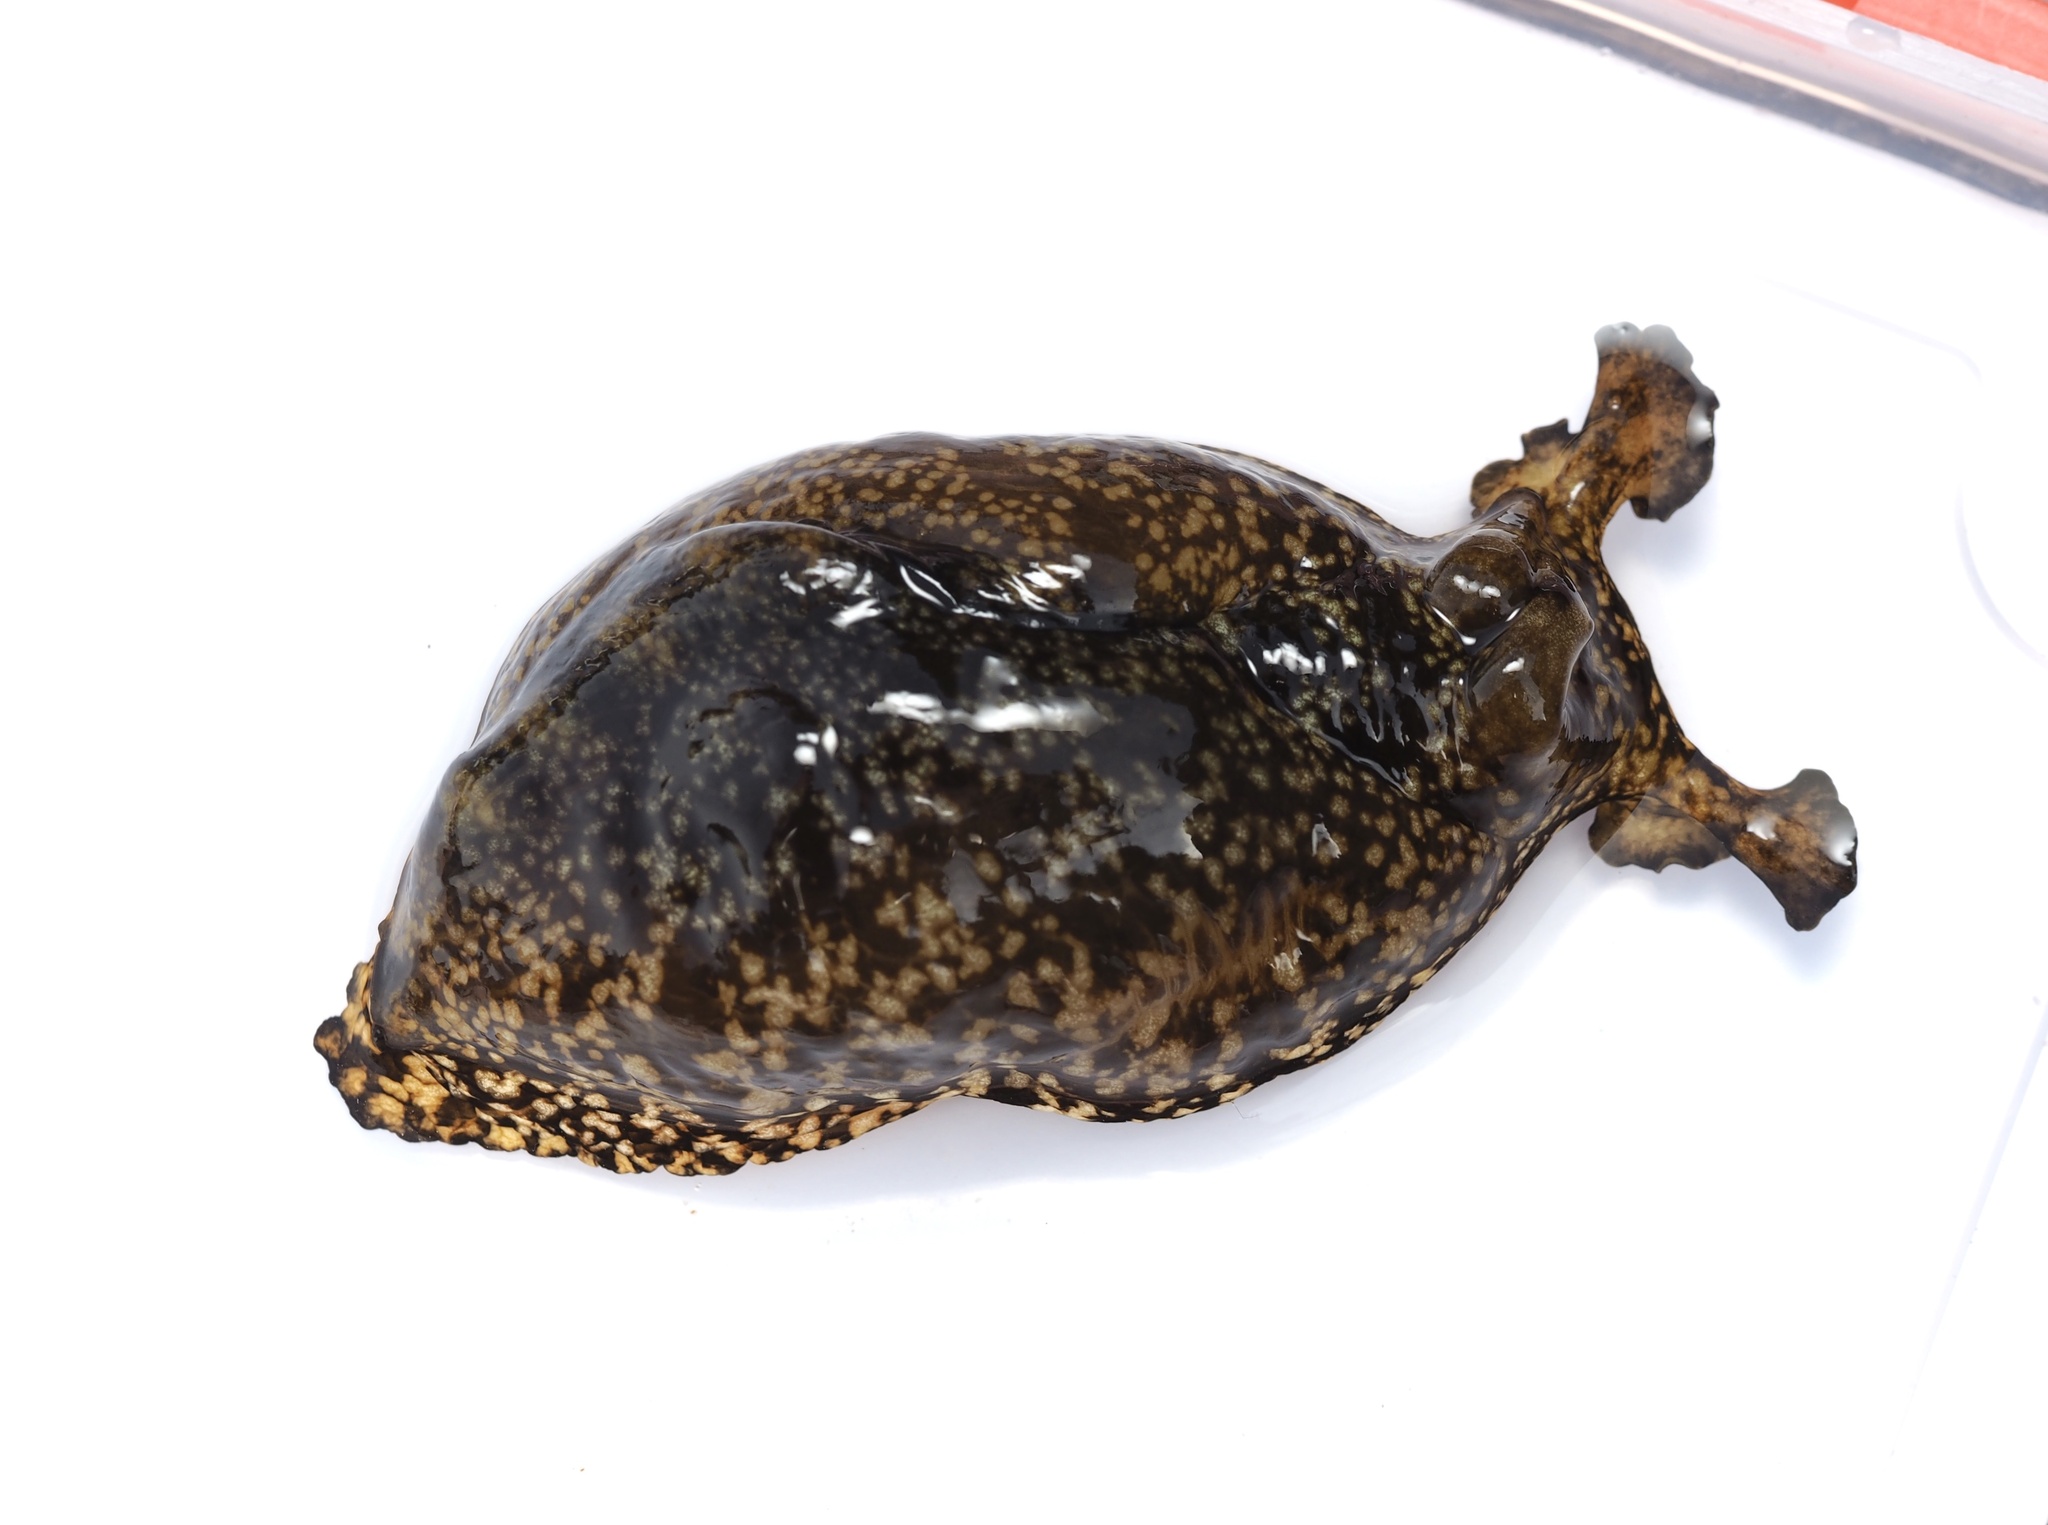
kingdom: Animalia
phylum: Mollusca
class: Gastropoda
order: Aplysiida
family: Aplysiidae
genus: Aplysia
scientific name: Aplysia kurodai
